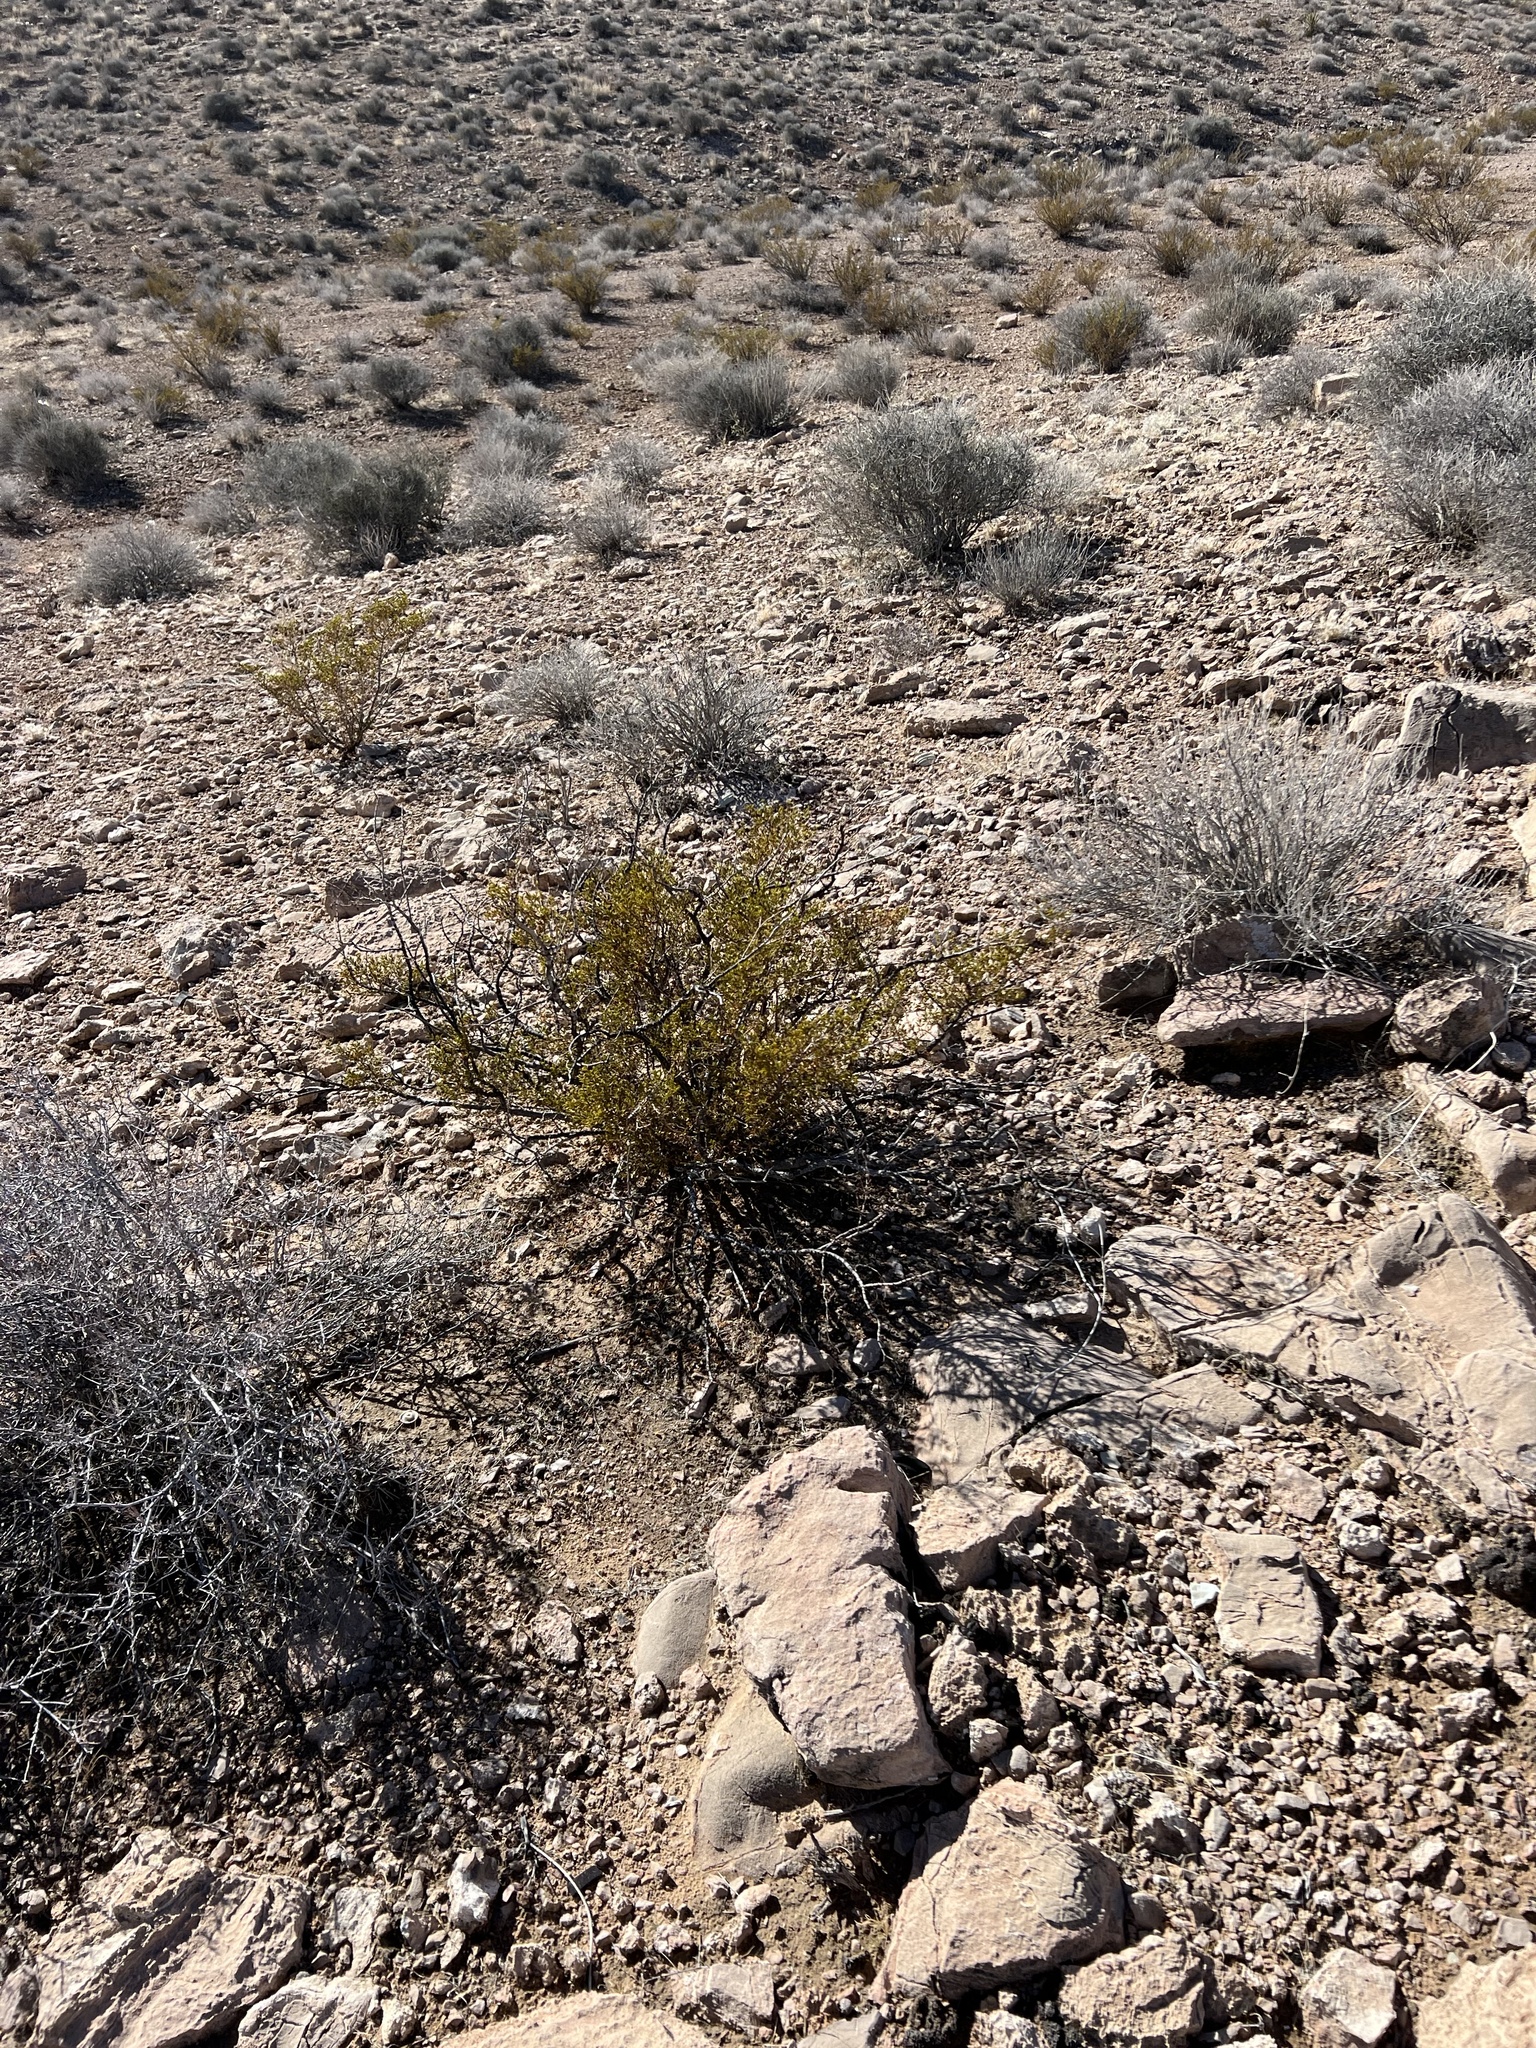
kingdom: Plantae
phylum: Tracheophyta
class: Magnoliopsida
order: Zygophyllales
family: Zygophyllaceae
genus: Larrea
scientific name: Larrea tridentata
